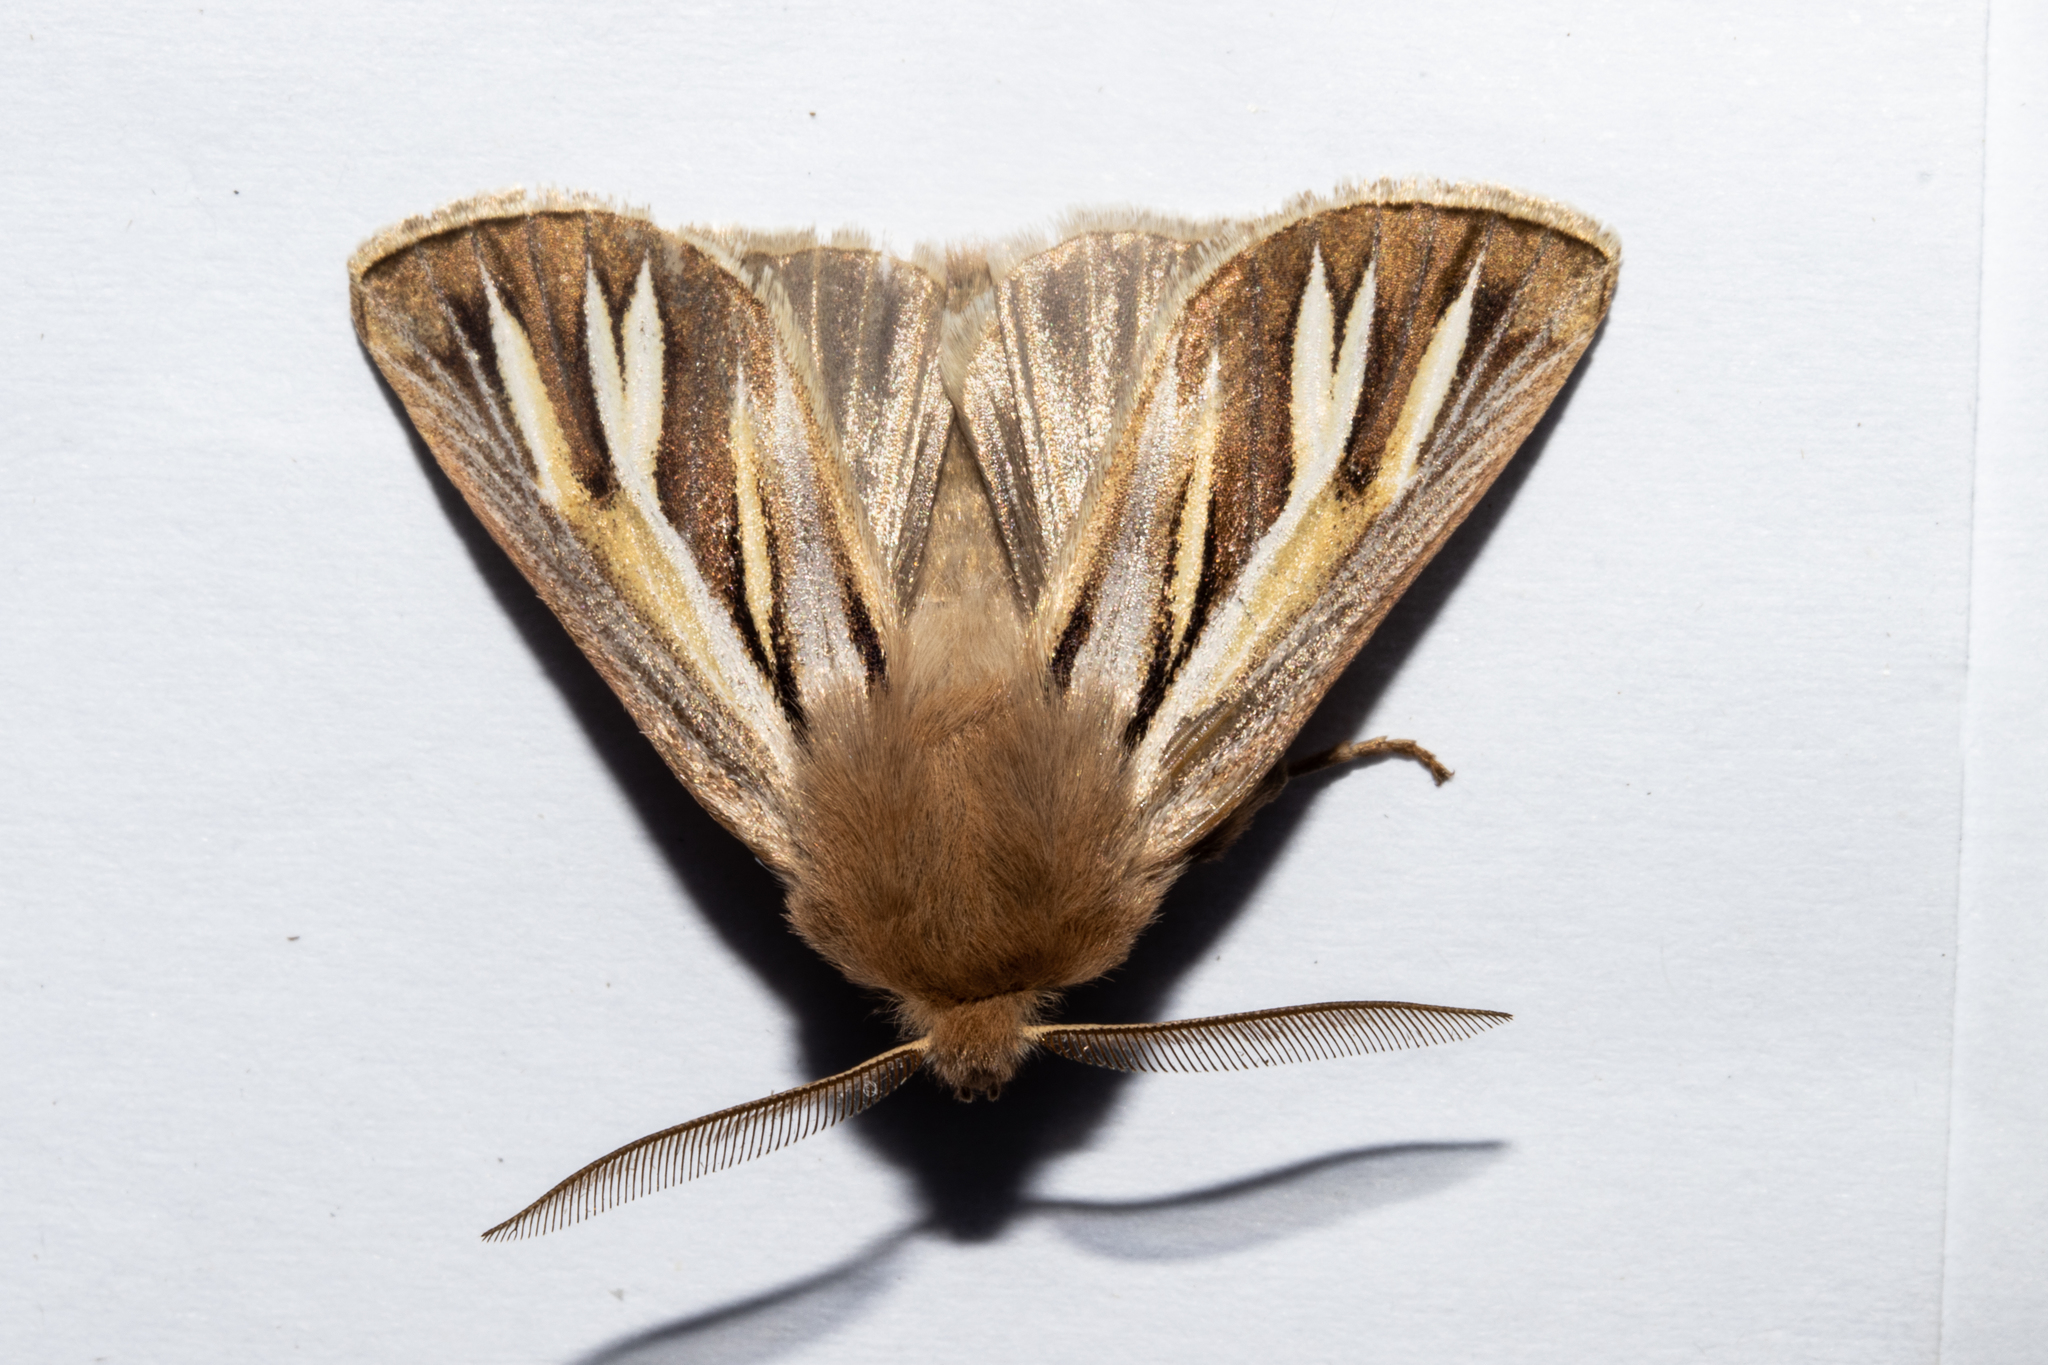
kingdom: Animalia
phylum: Arthropoda
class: Insecta
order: Lepidoptera
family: Noctuidae
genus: Ichneutica
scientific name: Ichneutica caraunias
